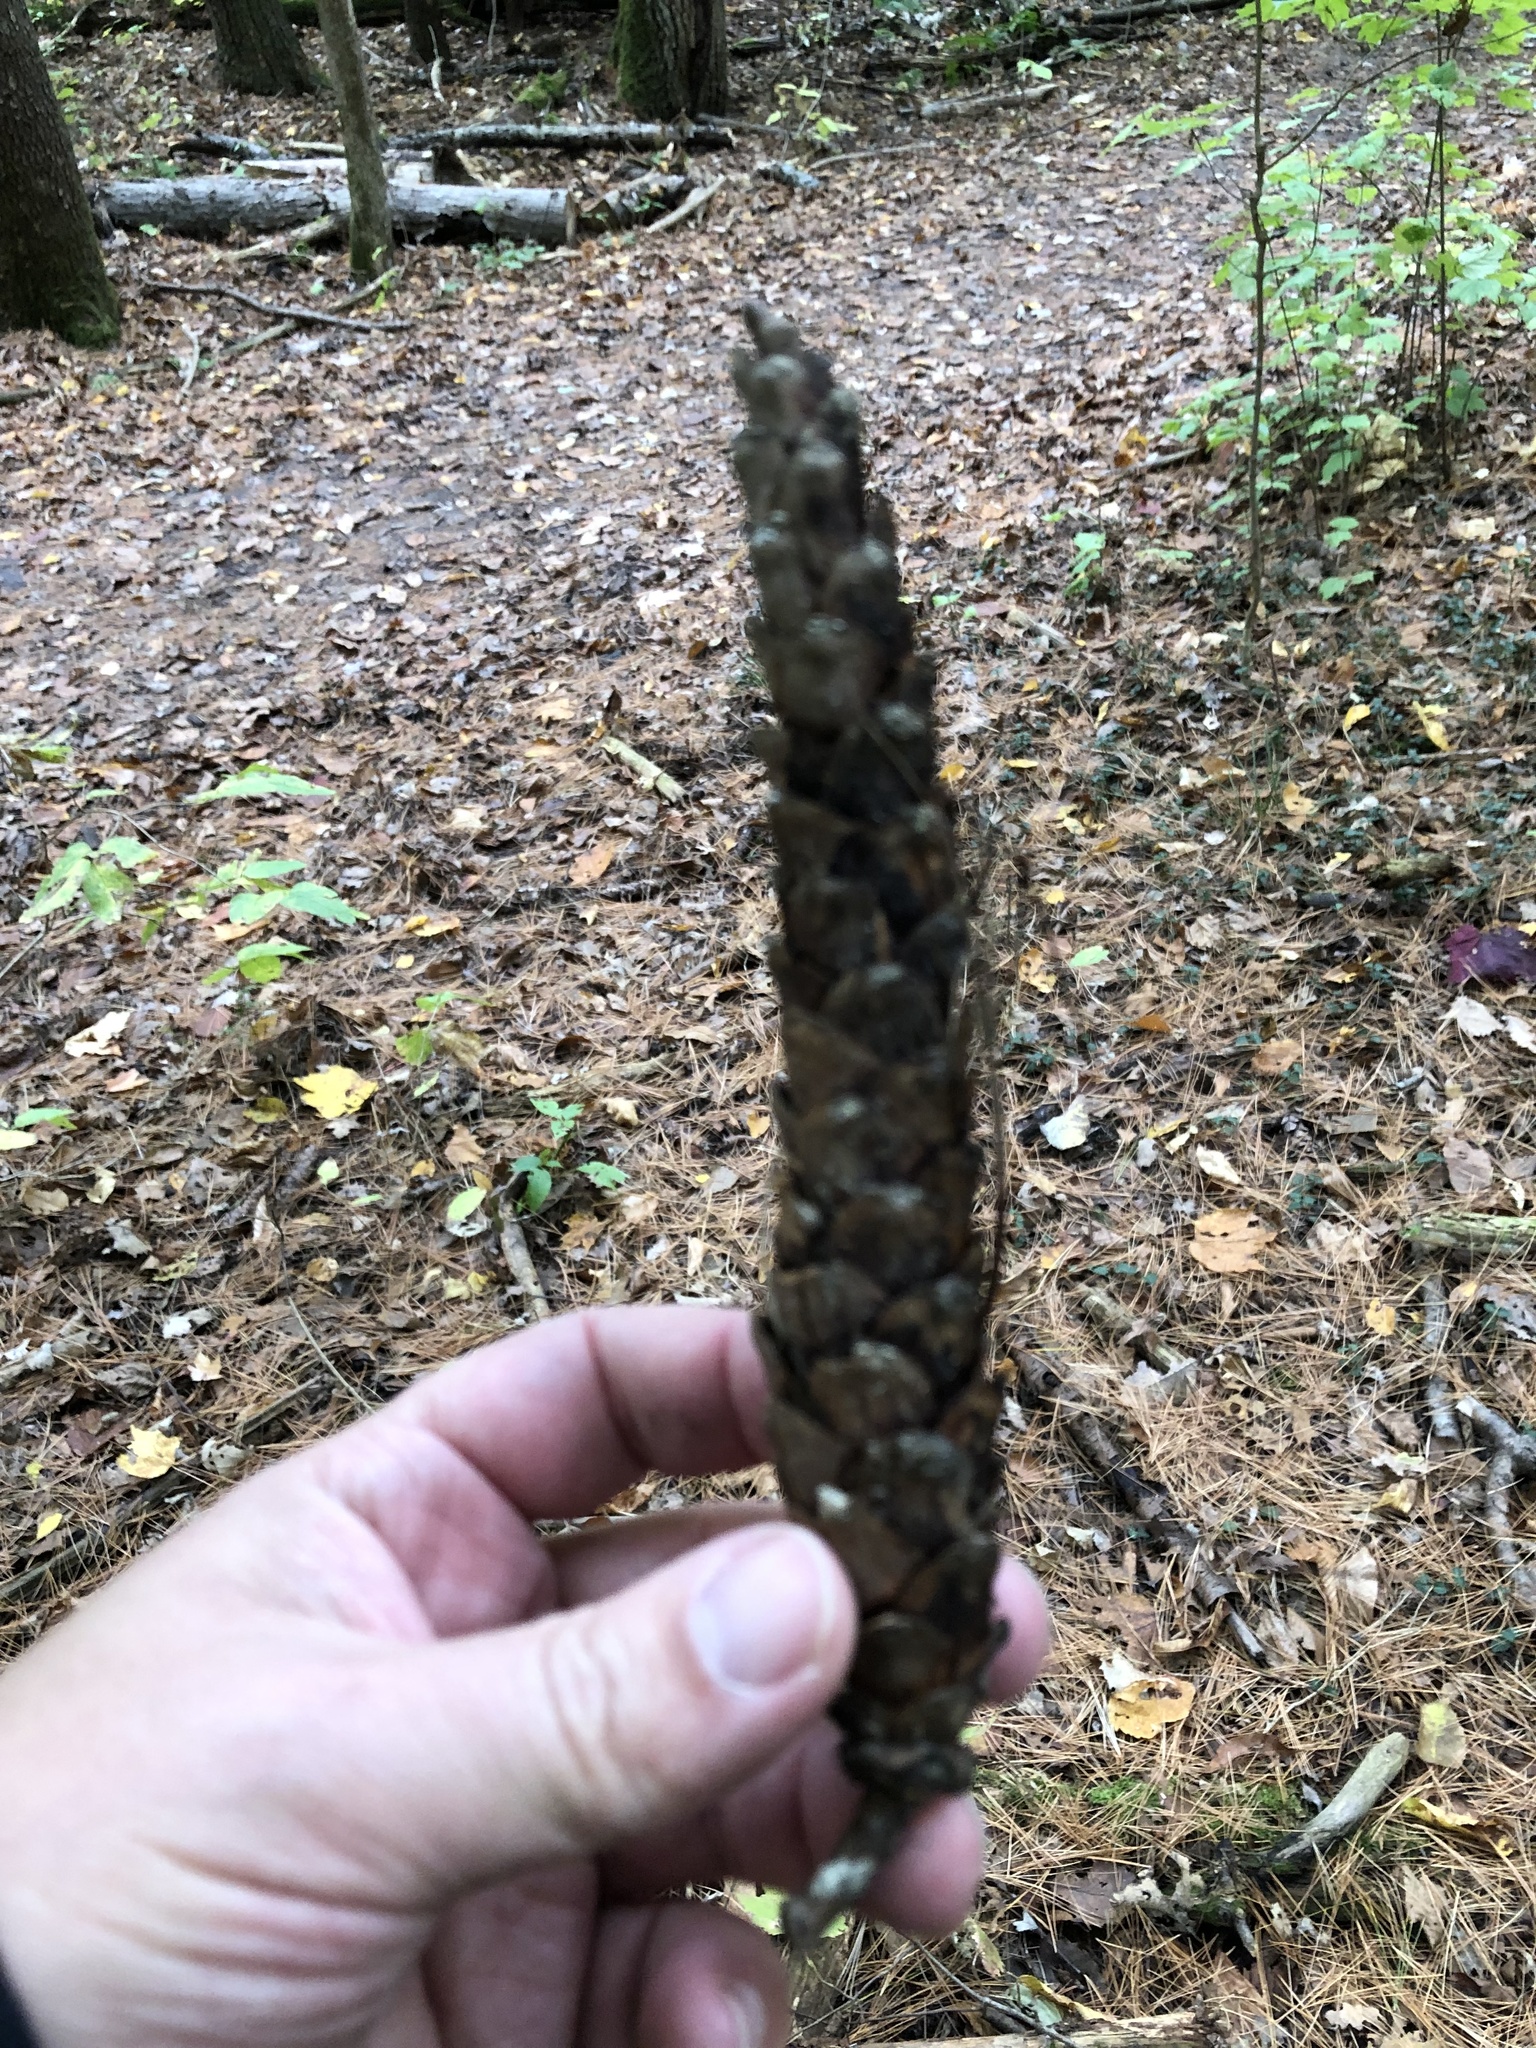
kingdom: Plantae
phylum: Tracheophyta
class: Pinopsida
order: Pinales
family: Pinaceae
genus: Pinus
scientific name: Pinus strobus
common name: Weymouth pine
